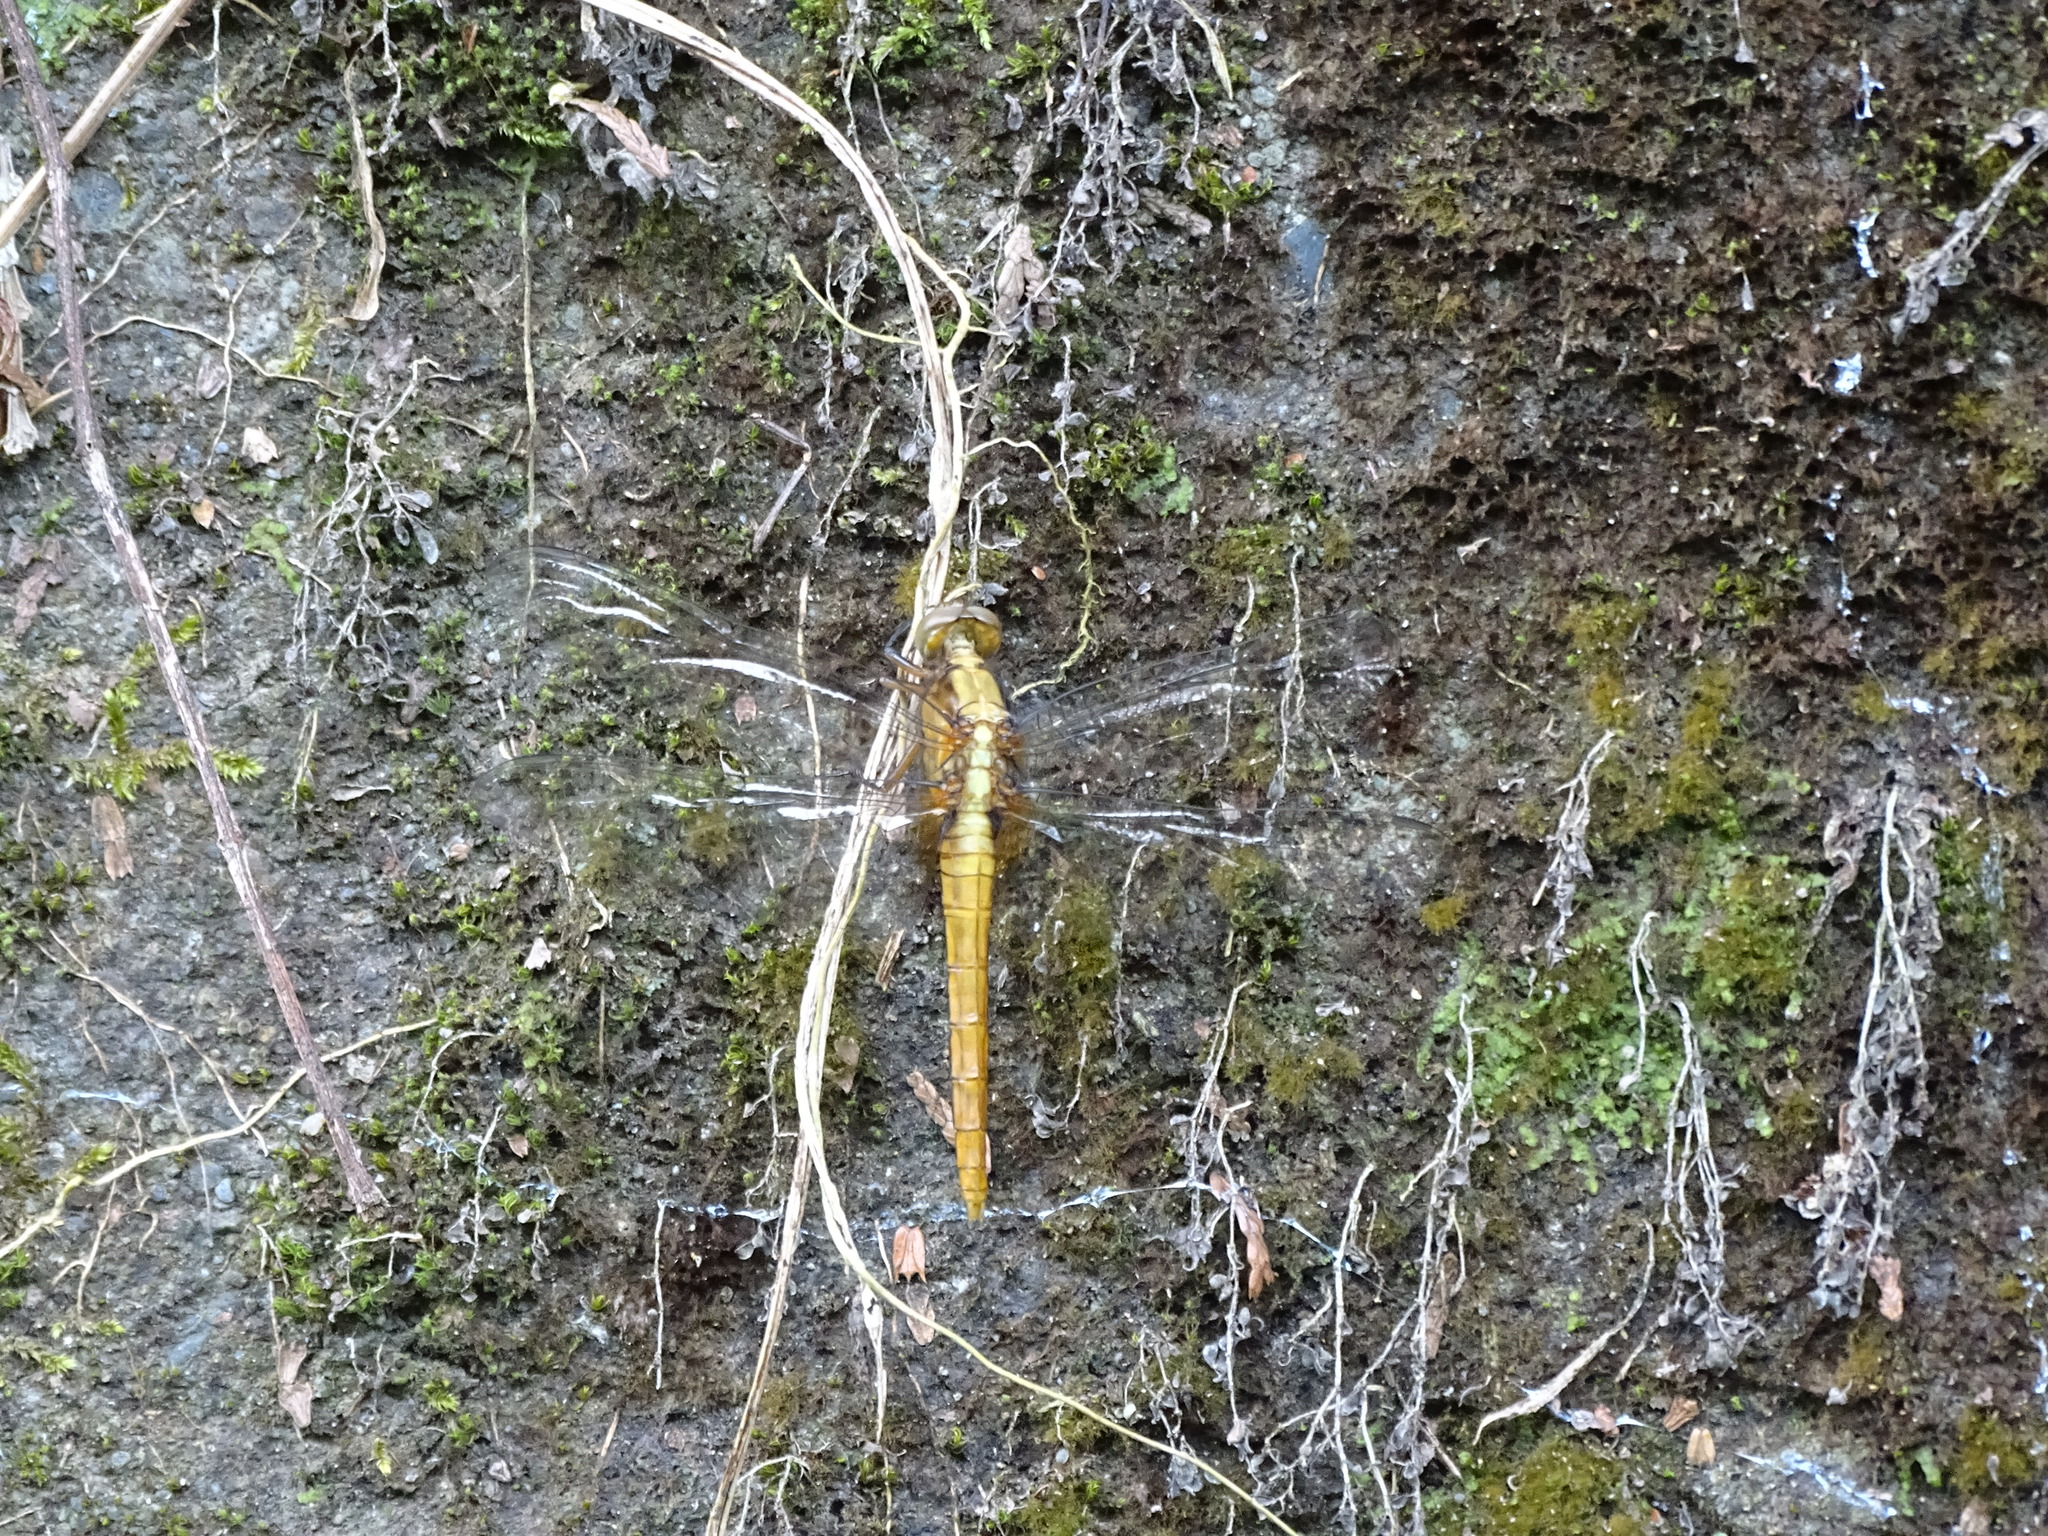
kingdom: Animalia
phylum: Arthropoda
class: Insecta
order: Odonata
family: Libellulidae
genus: Orthetrum
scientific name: Orthetrum pruinosum
